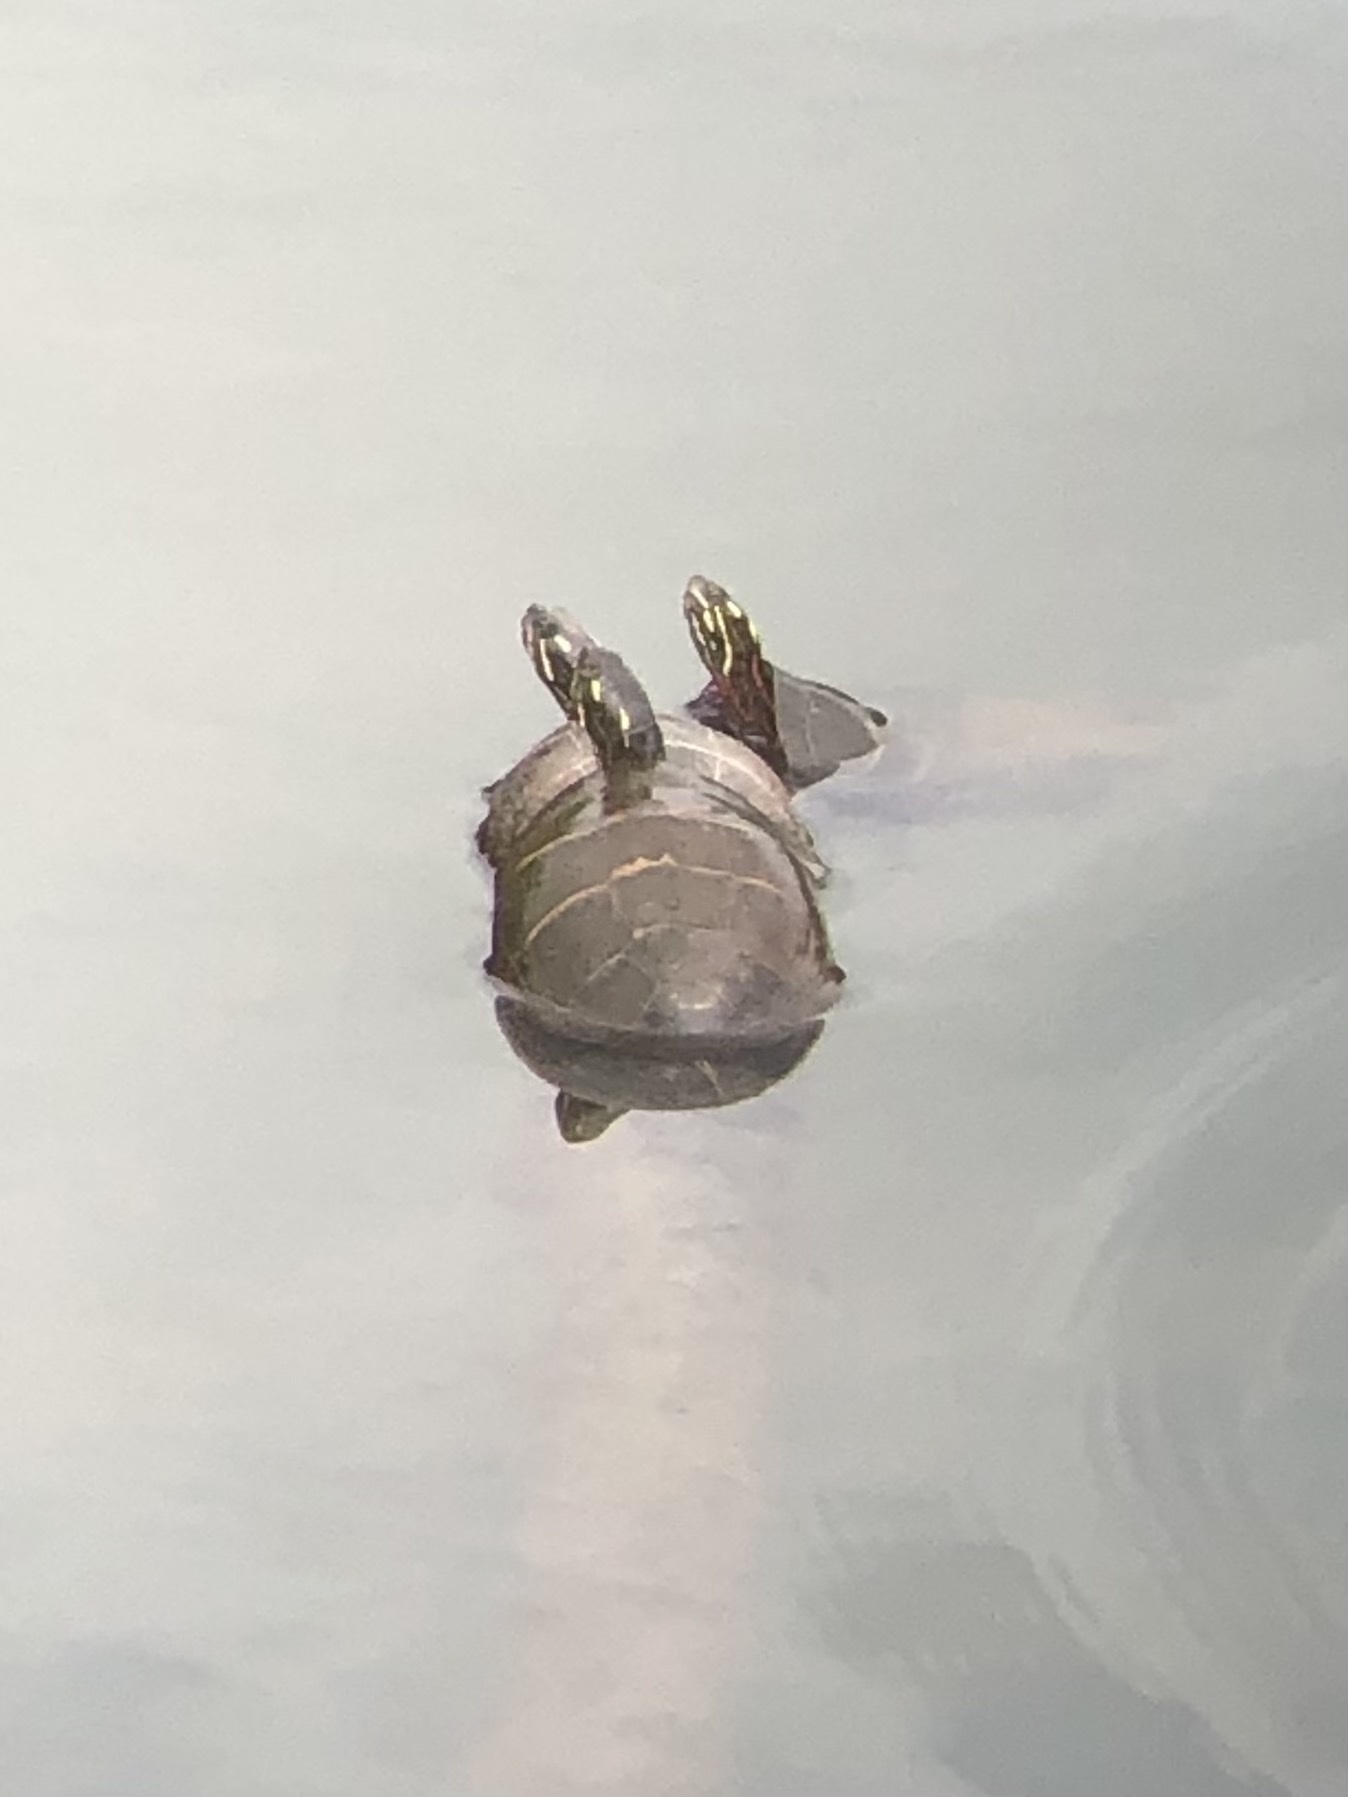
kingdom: Animalia
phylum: Chordata
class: Testudines
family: Emydidae
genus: Chrysemys
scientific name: Chrysemys picta
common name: Painted turtle
